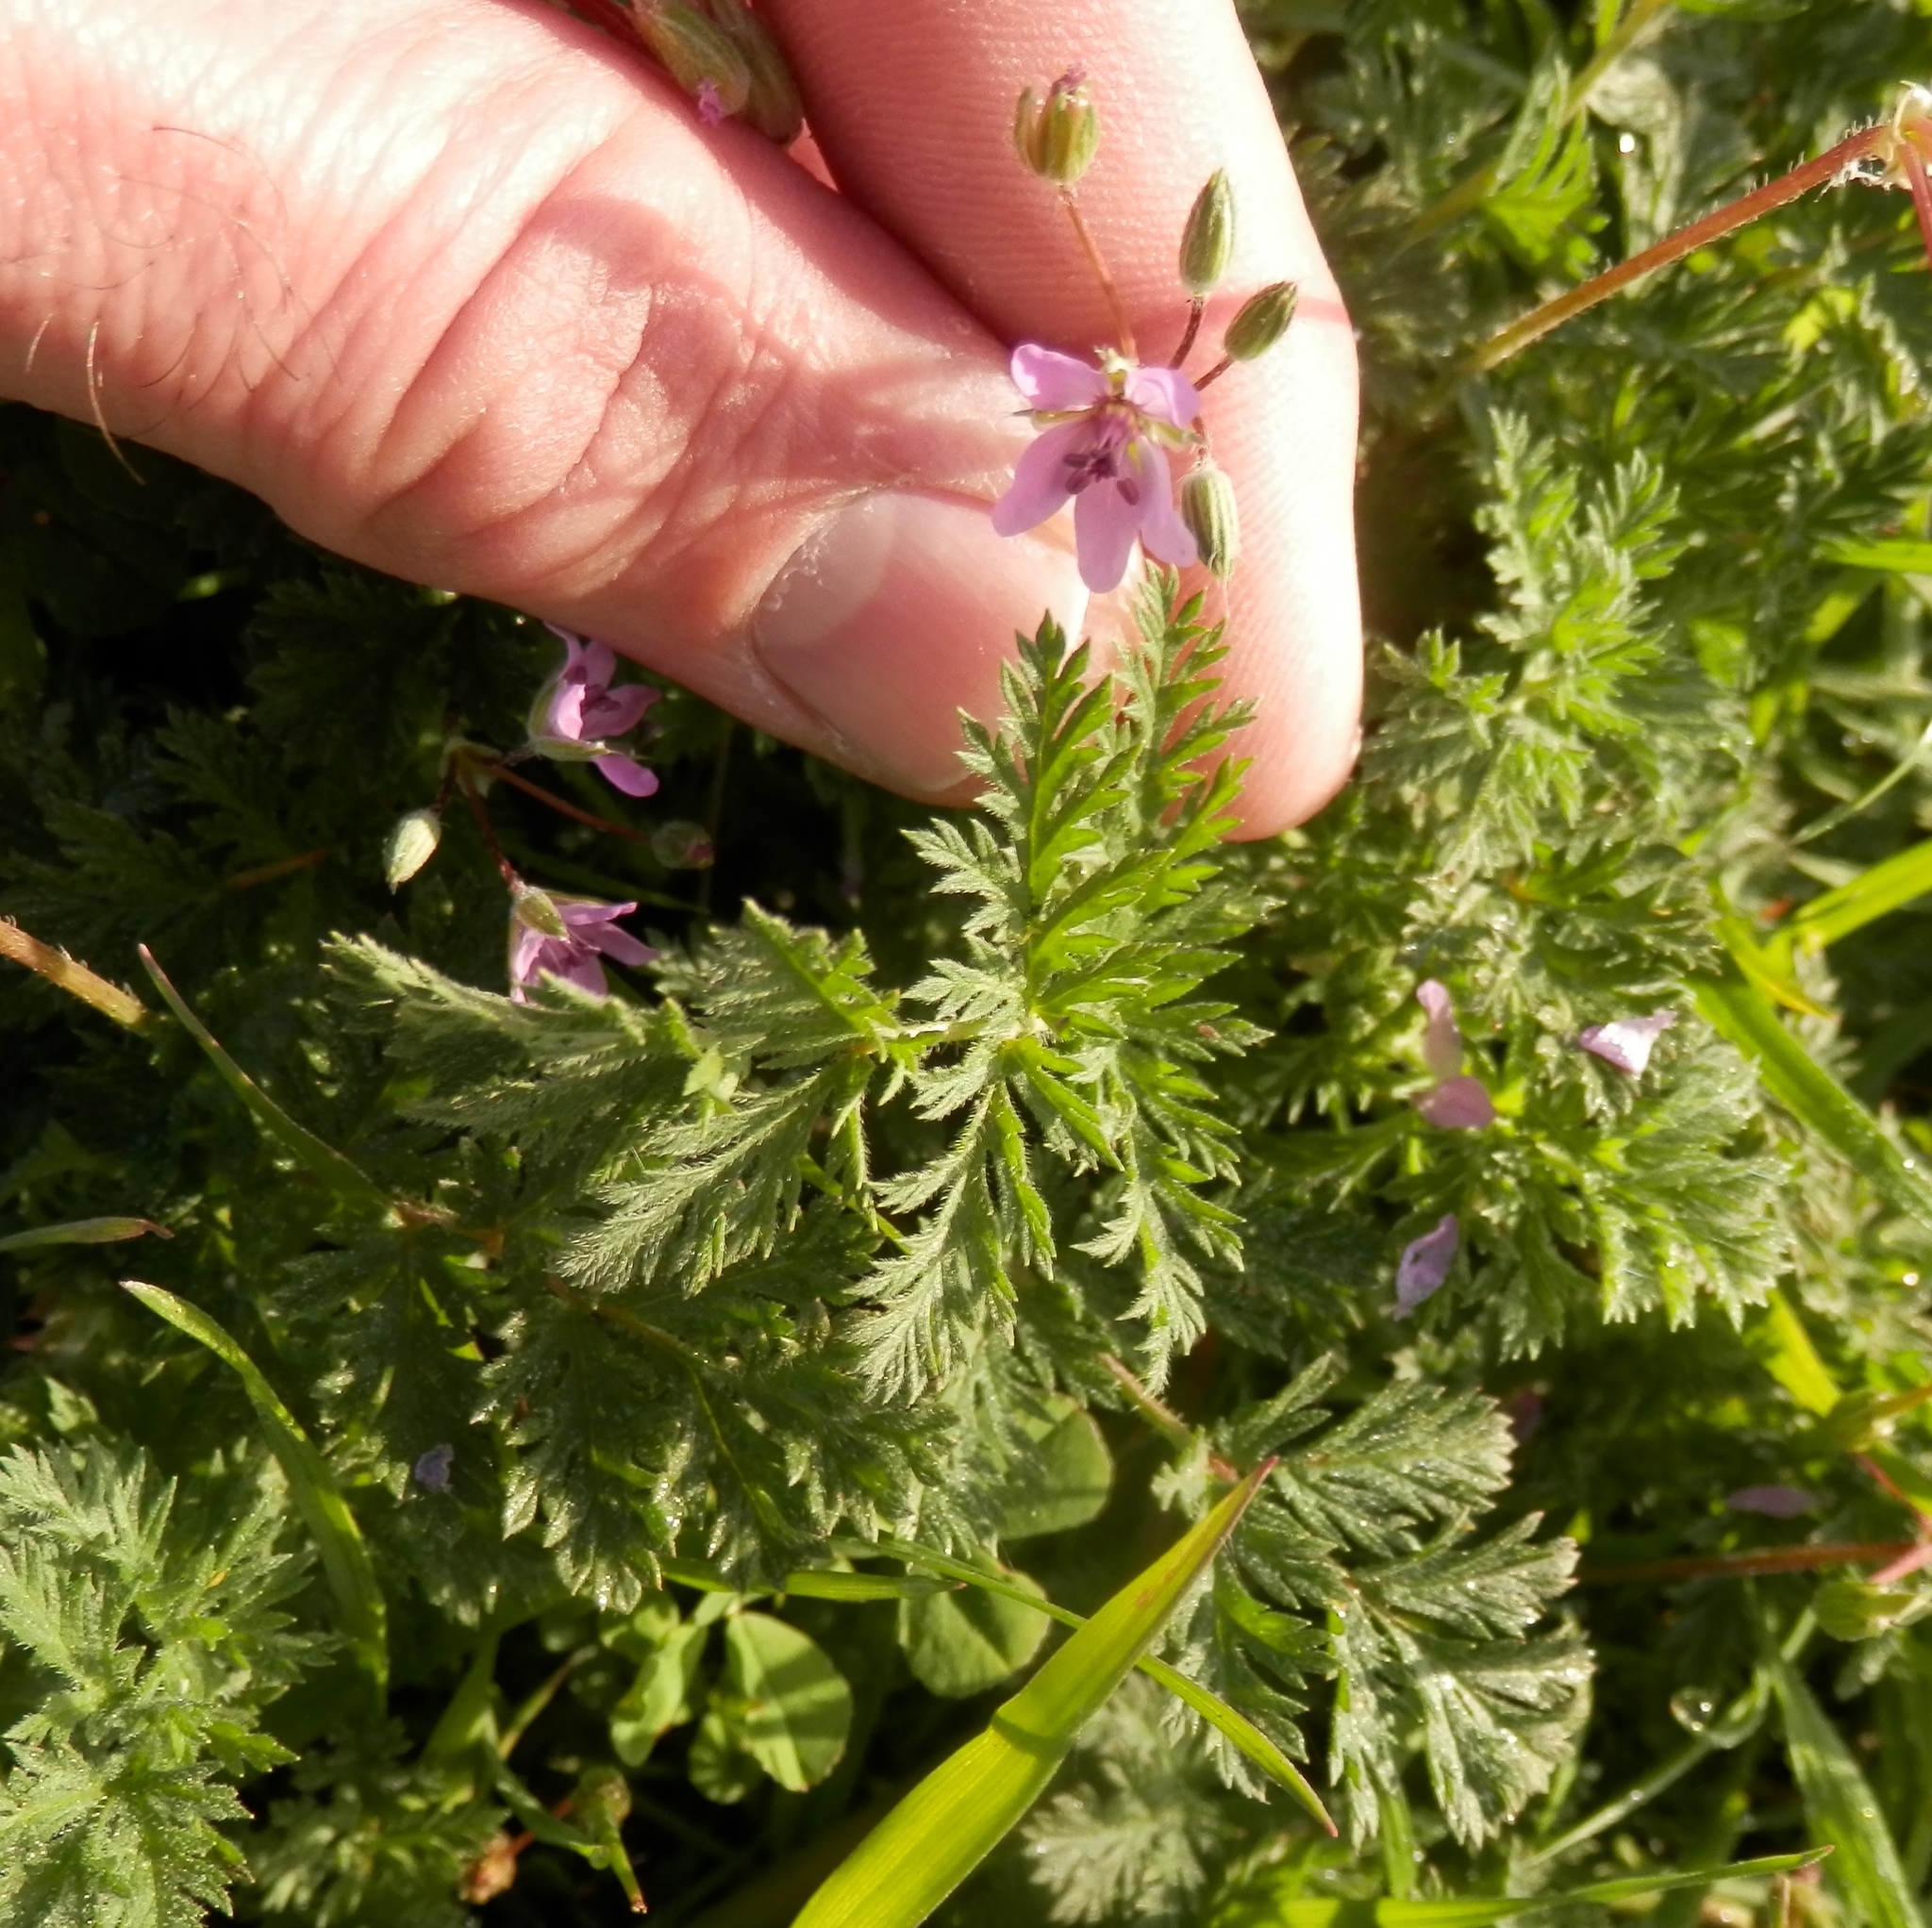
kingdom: Plantae
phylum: Tracheophyta
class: Magnoliopsida
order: Geraniales
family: Geraniaceae
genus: Erodium
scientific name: Erodium cicutarium
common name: Common stork's-bill
